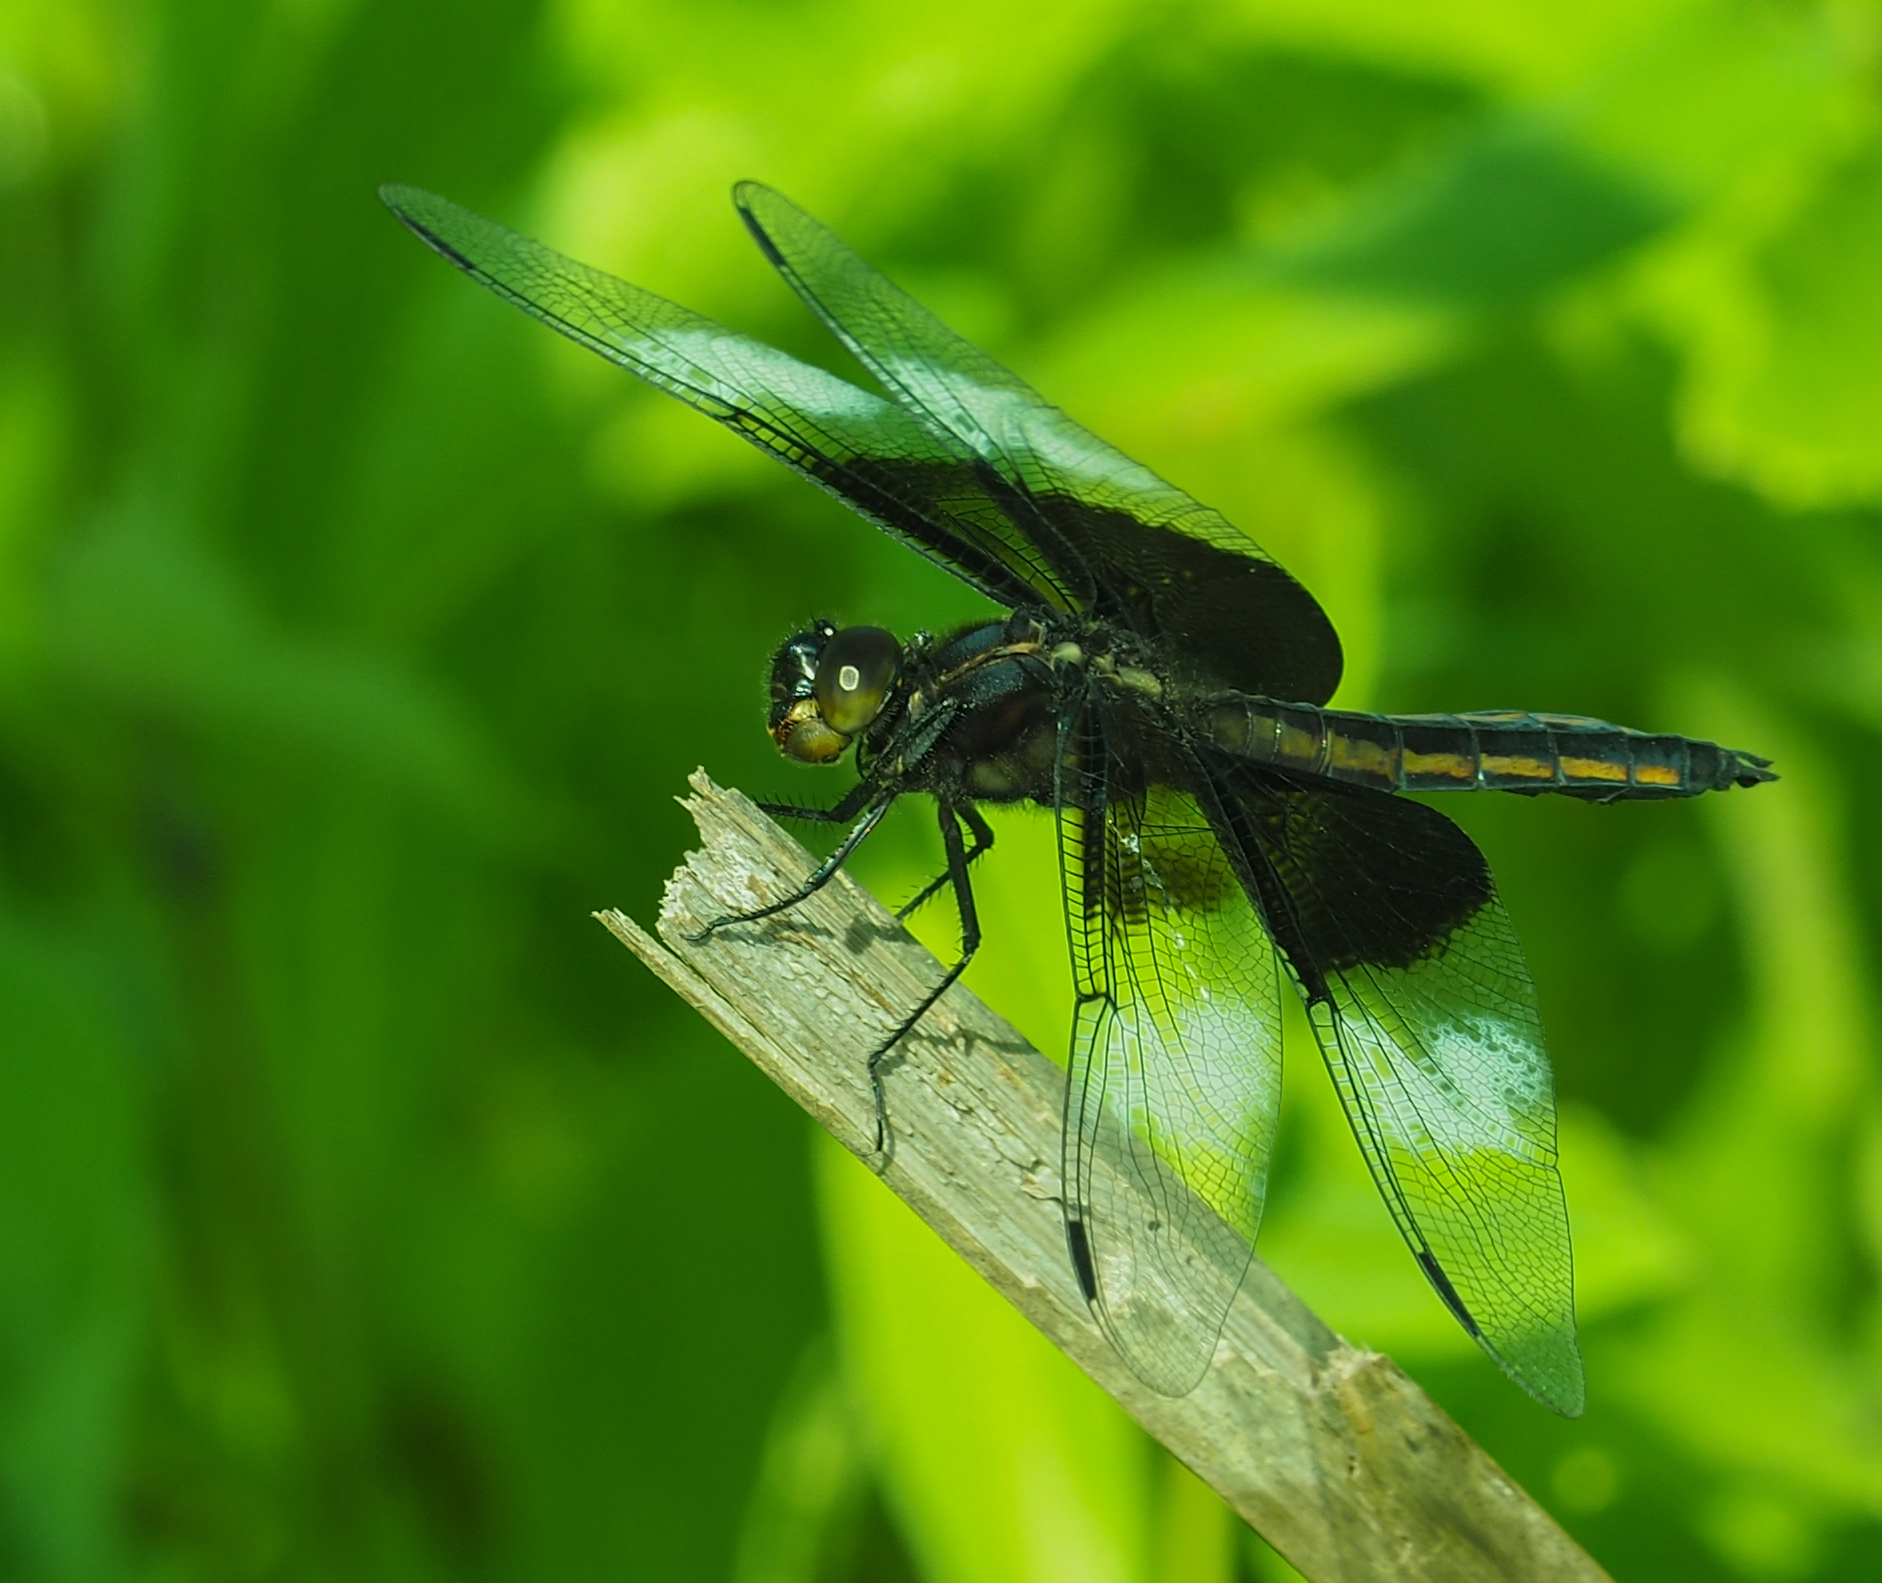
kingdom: Animalia
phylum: Arthropoda
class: Insecta
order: Odonata
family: Libellulidae
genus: Libellula
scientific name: Libellula luctuosa
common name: Widow skimmer
